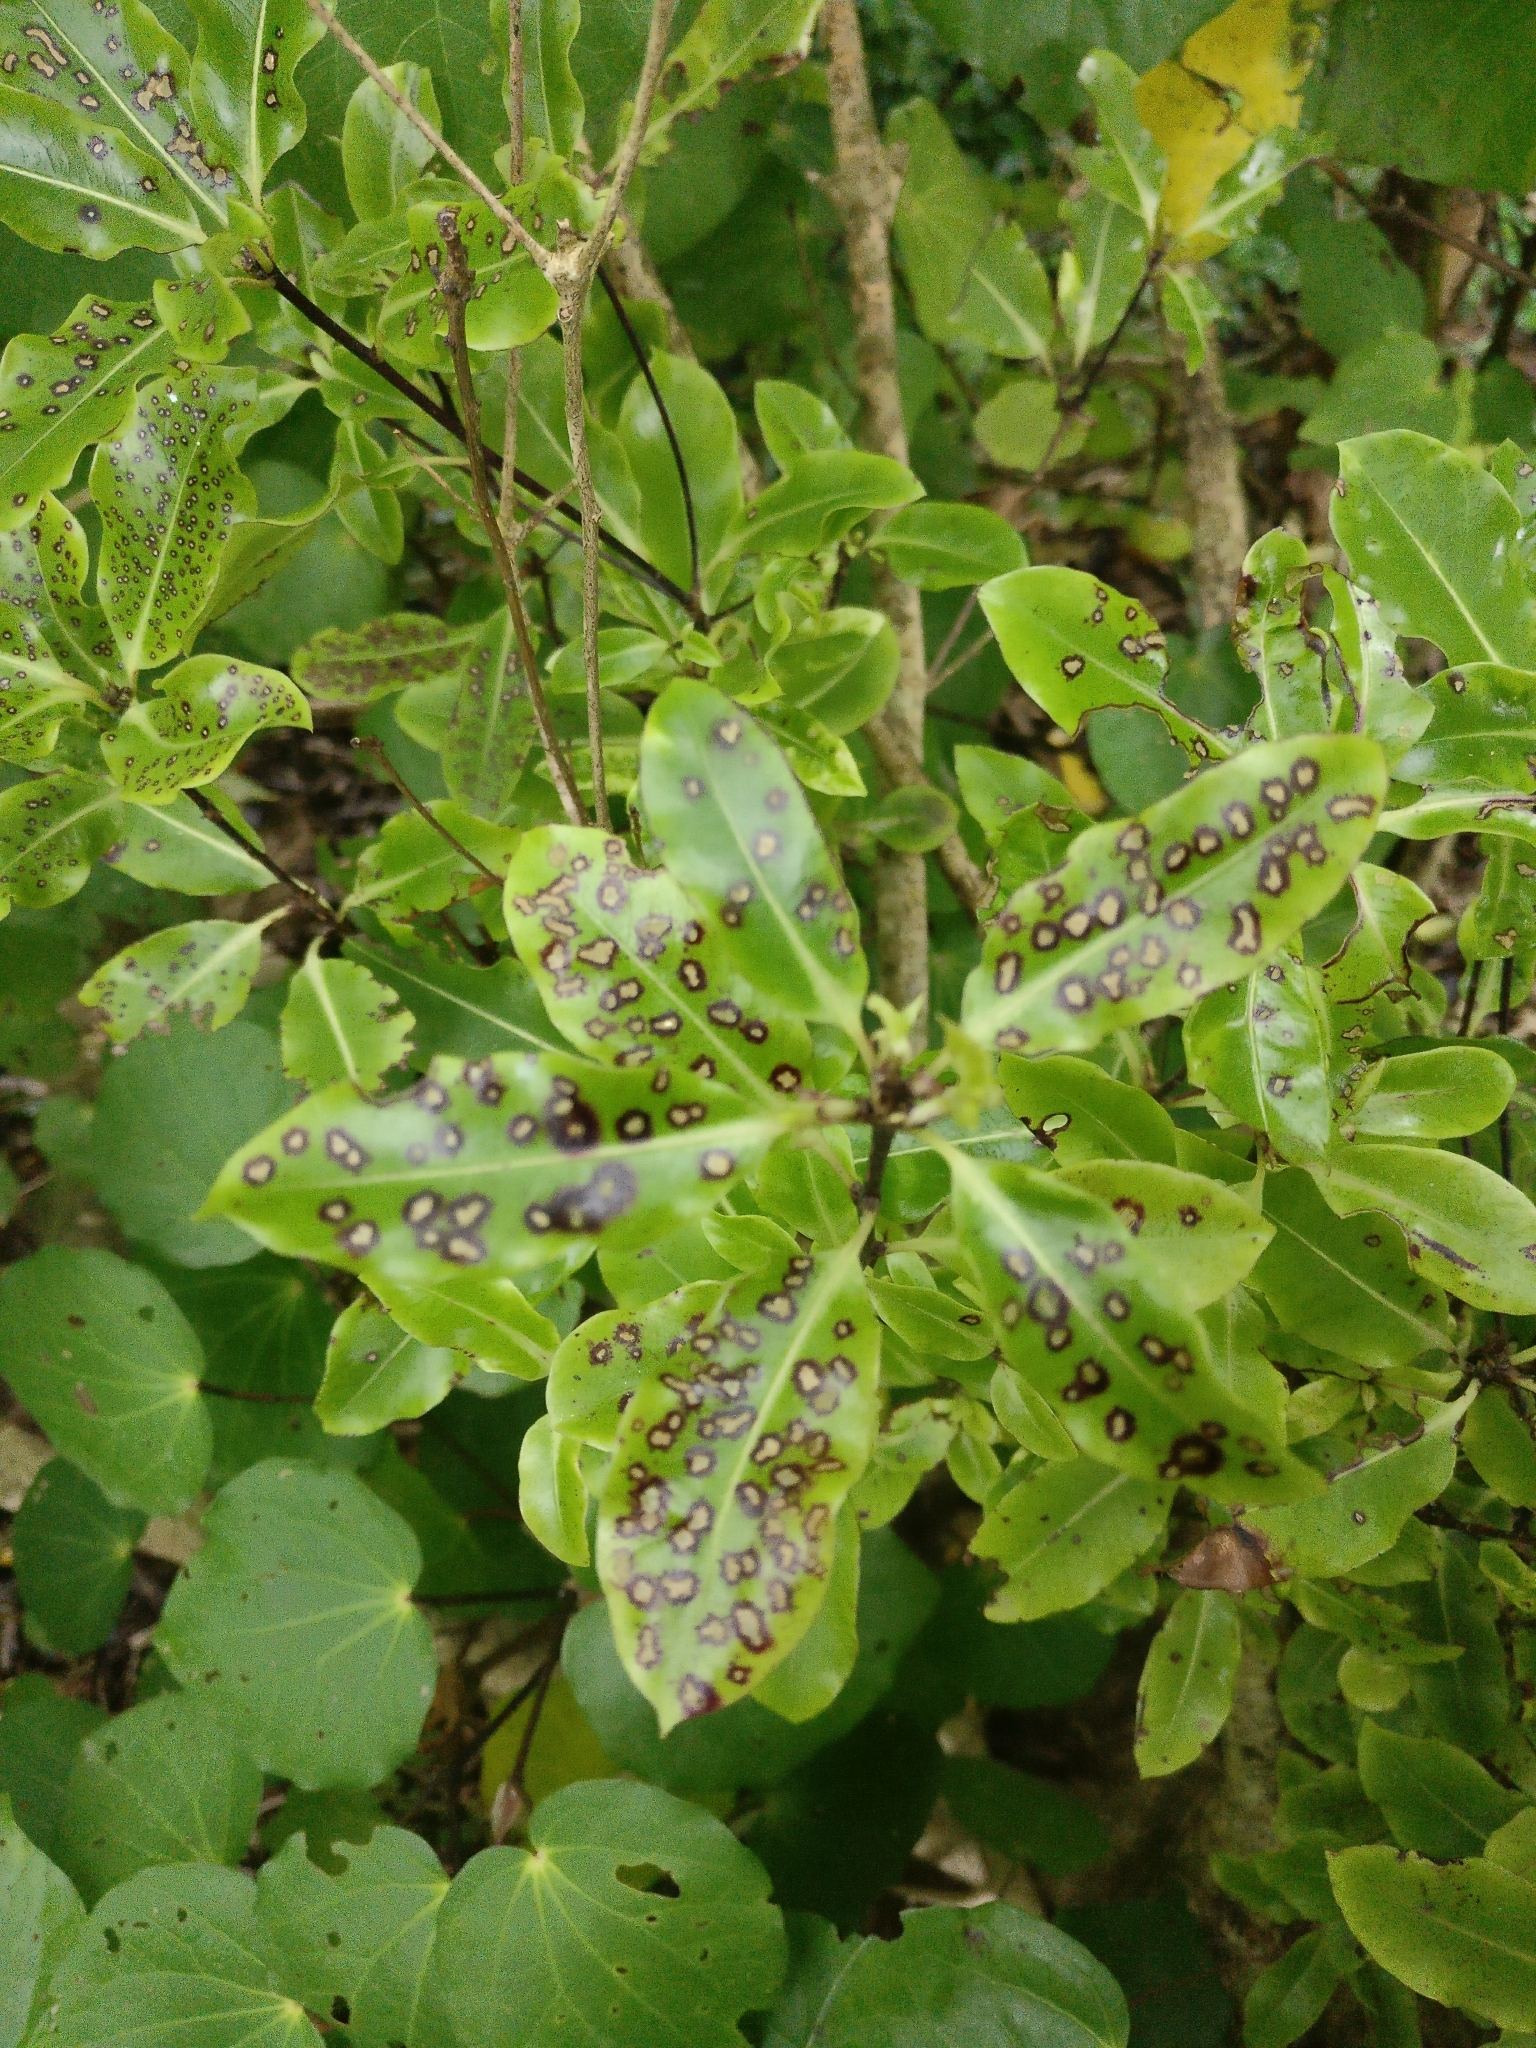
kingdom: Plantae
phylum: Tracheophyta
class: Magnoliopsida
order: Apiales
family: Pittosporaceae
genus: Pittosporum
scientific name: Pittosporum eugenioides
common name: Lemonwood
